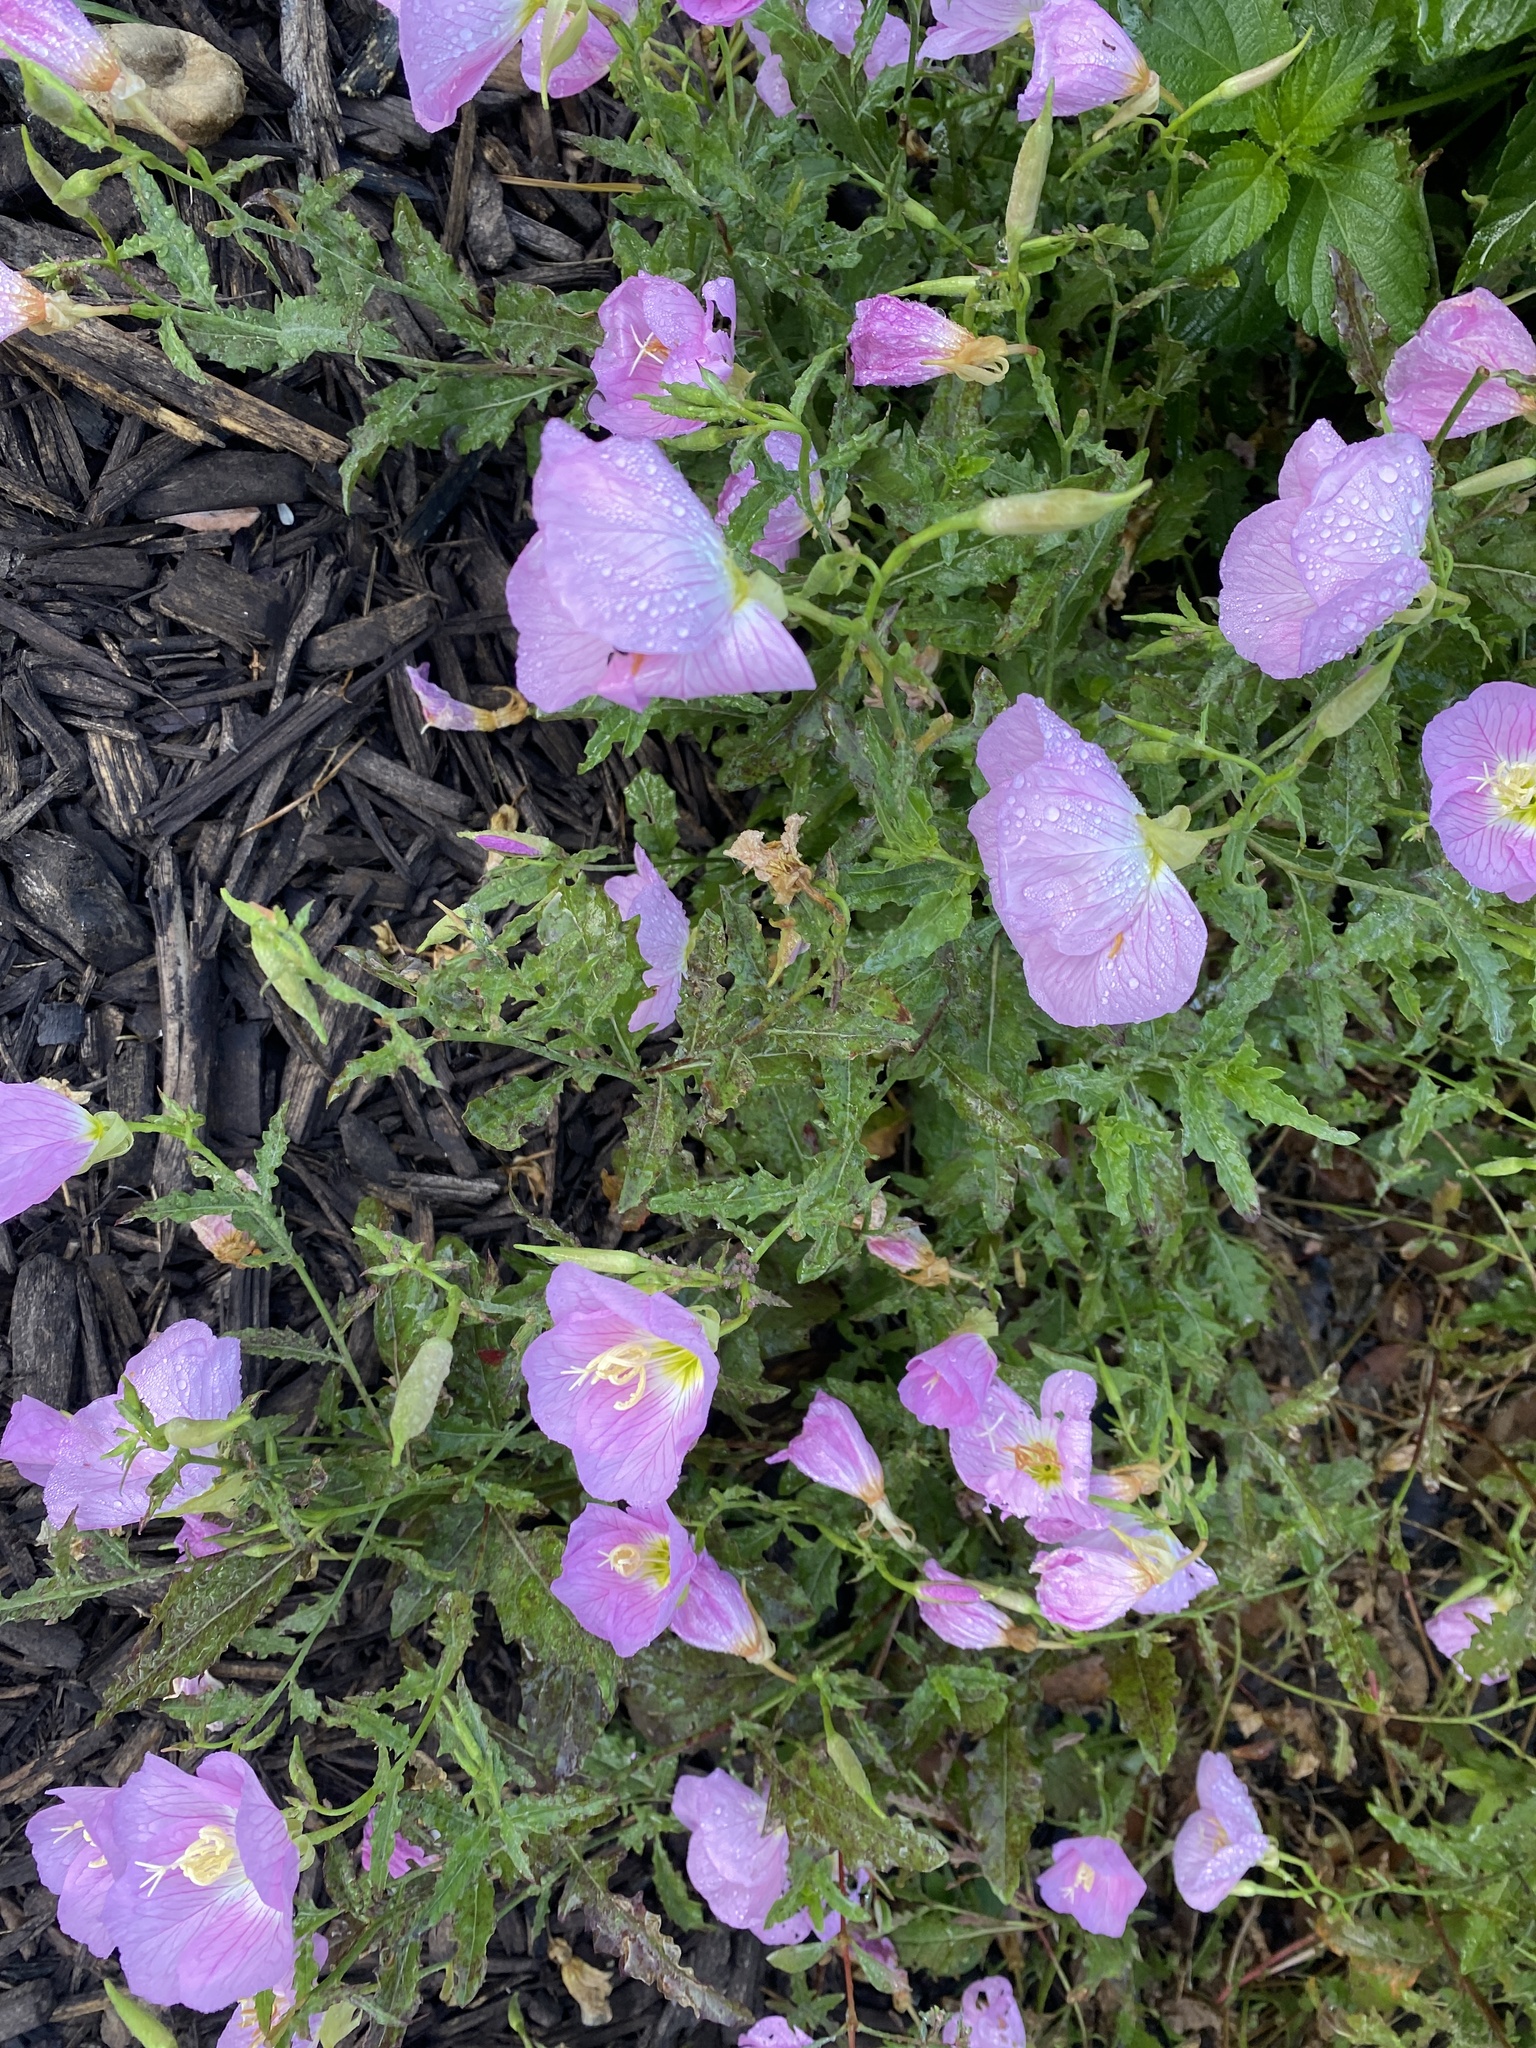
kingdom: Plantae
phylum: Tracheophyta
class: Magnoliopsida
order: Myrtales
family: Onagraceae
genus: Oenothera
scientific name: Oenothera speciosa
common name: White evening-primrose
